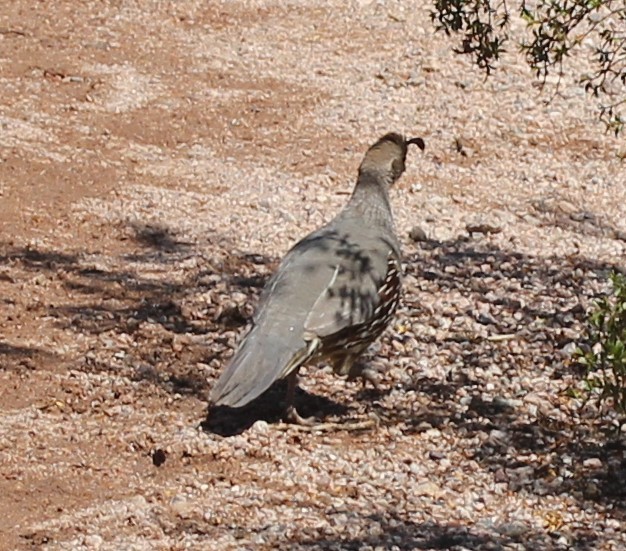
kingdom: Animalia
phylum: Chordata
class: Aves
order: Galliformes
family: Odontophoridae
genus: Callipepla
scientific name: Callipepla gambelii
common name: Gambel's quail
